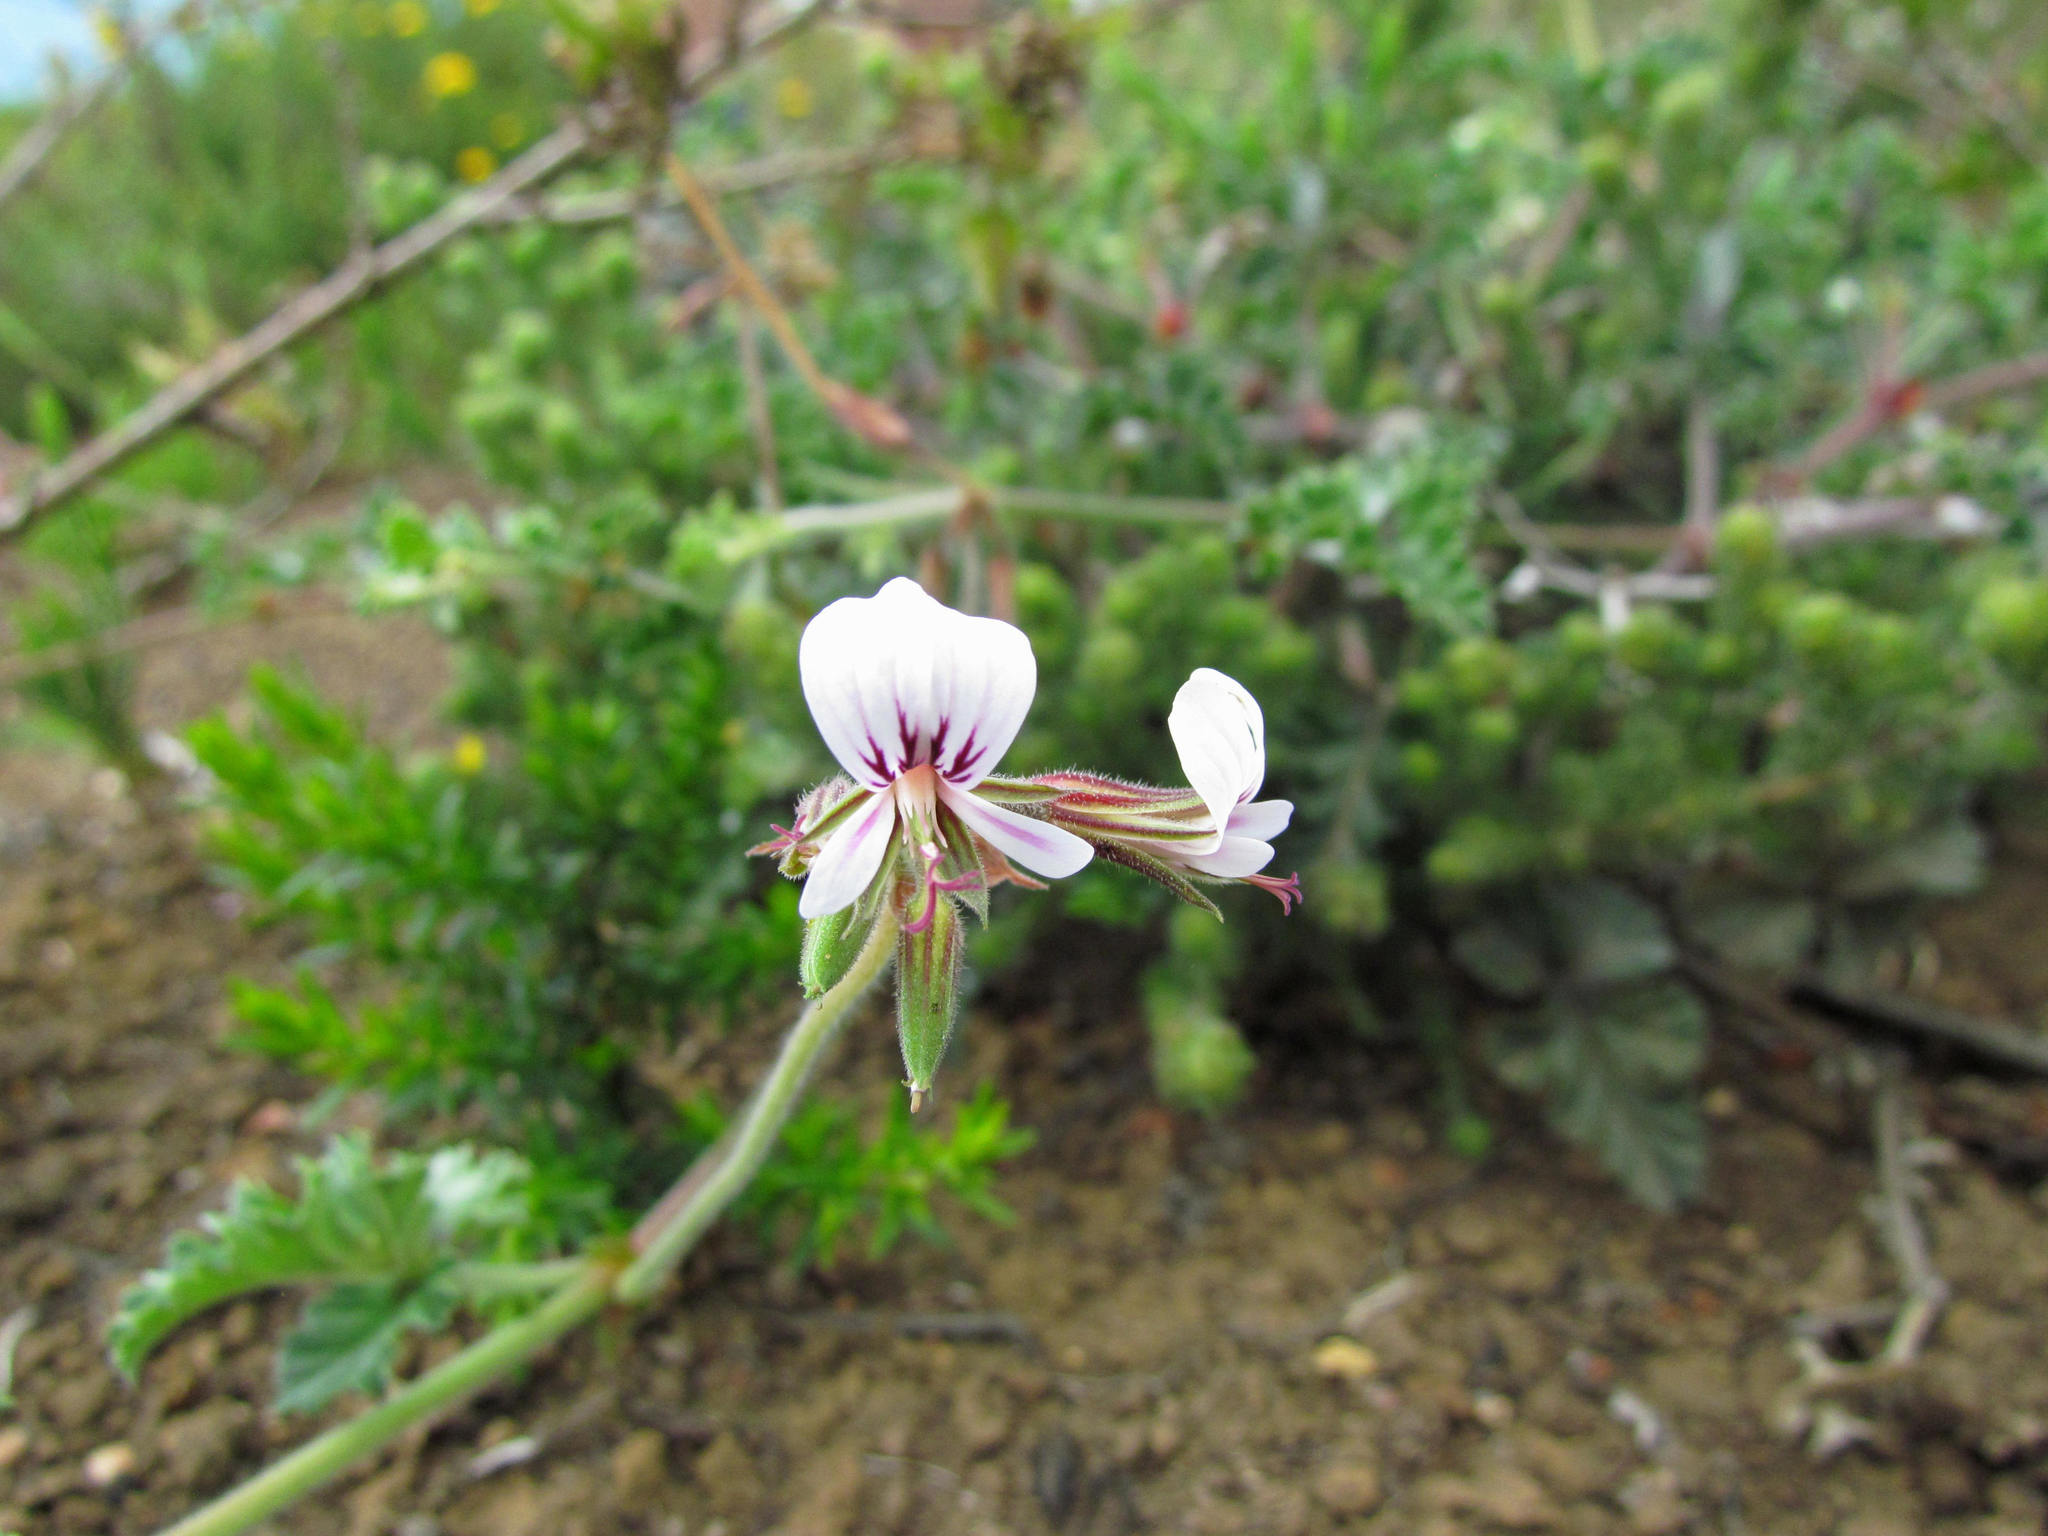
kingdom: Plantae
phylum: Tracheophyta
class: Magnoliopsida
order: Geraniales
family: Geraniaceae
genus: Pelargonium
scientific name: Pelargonium candicans
